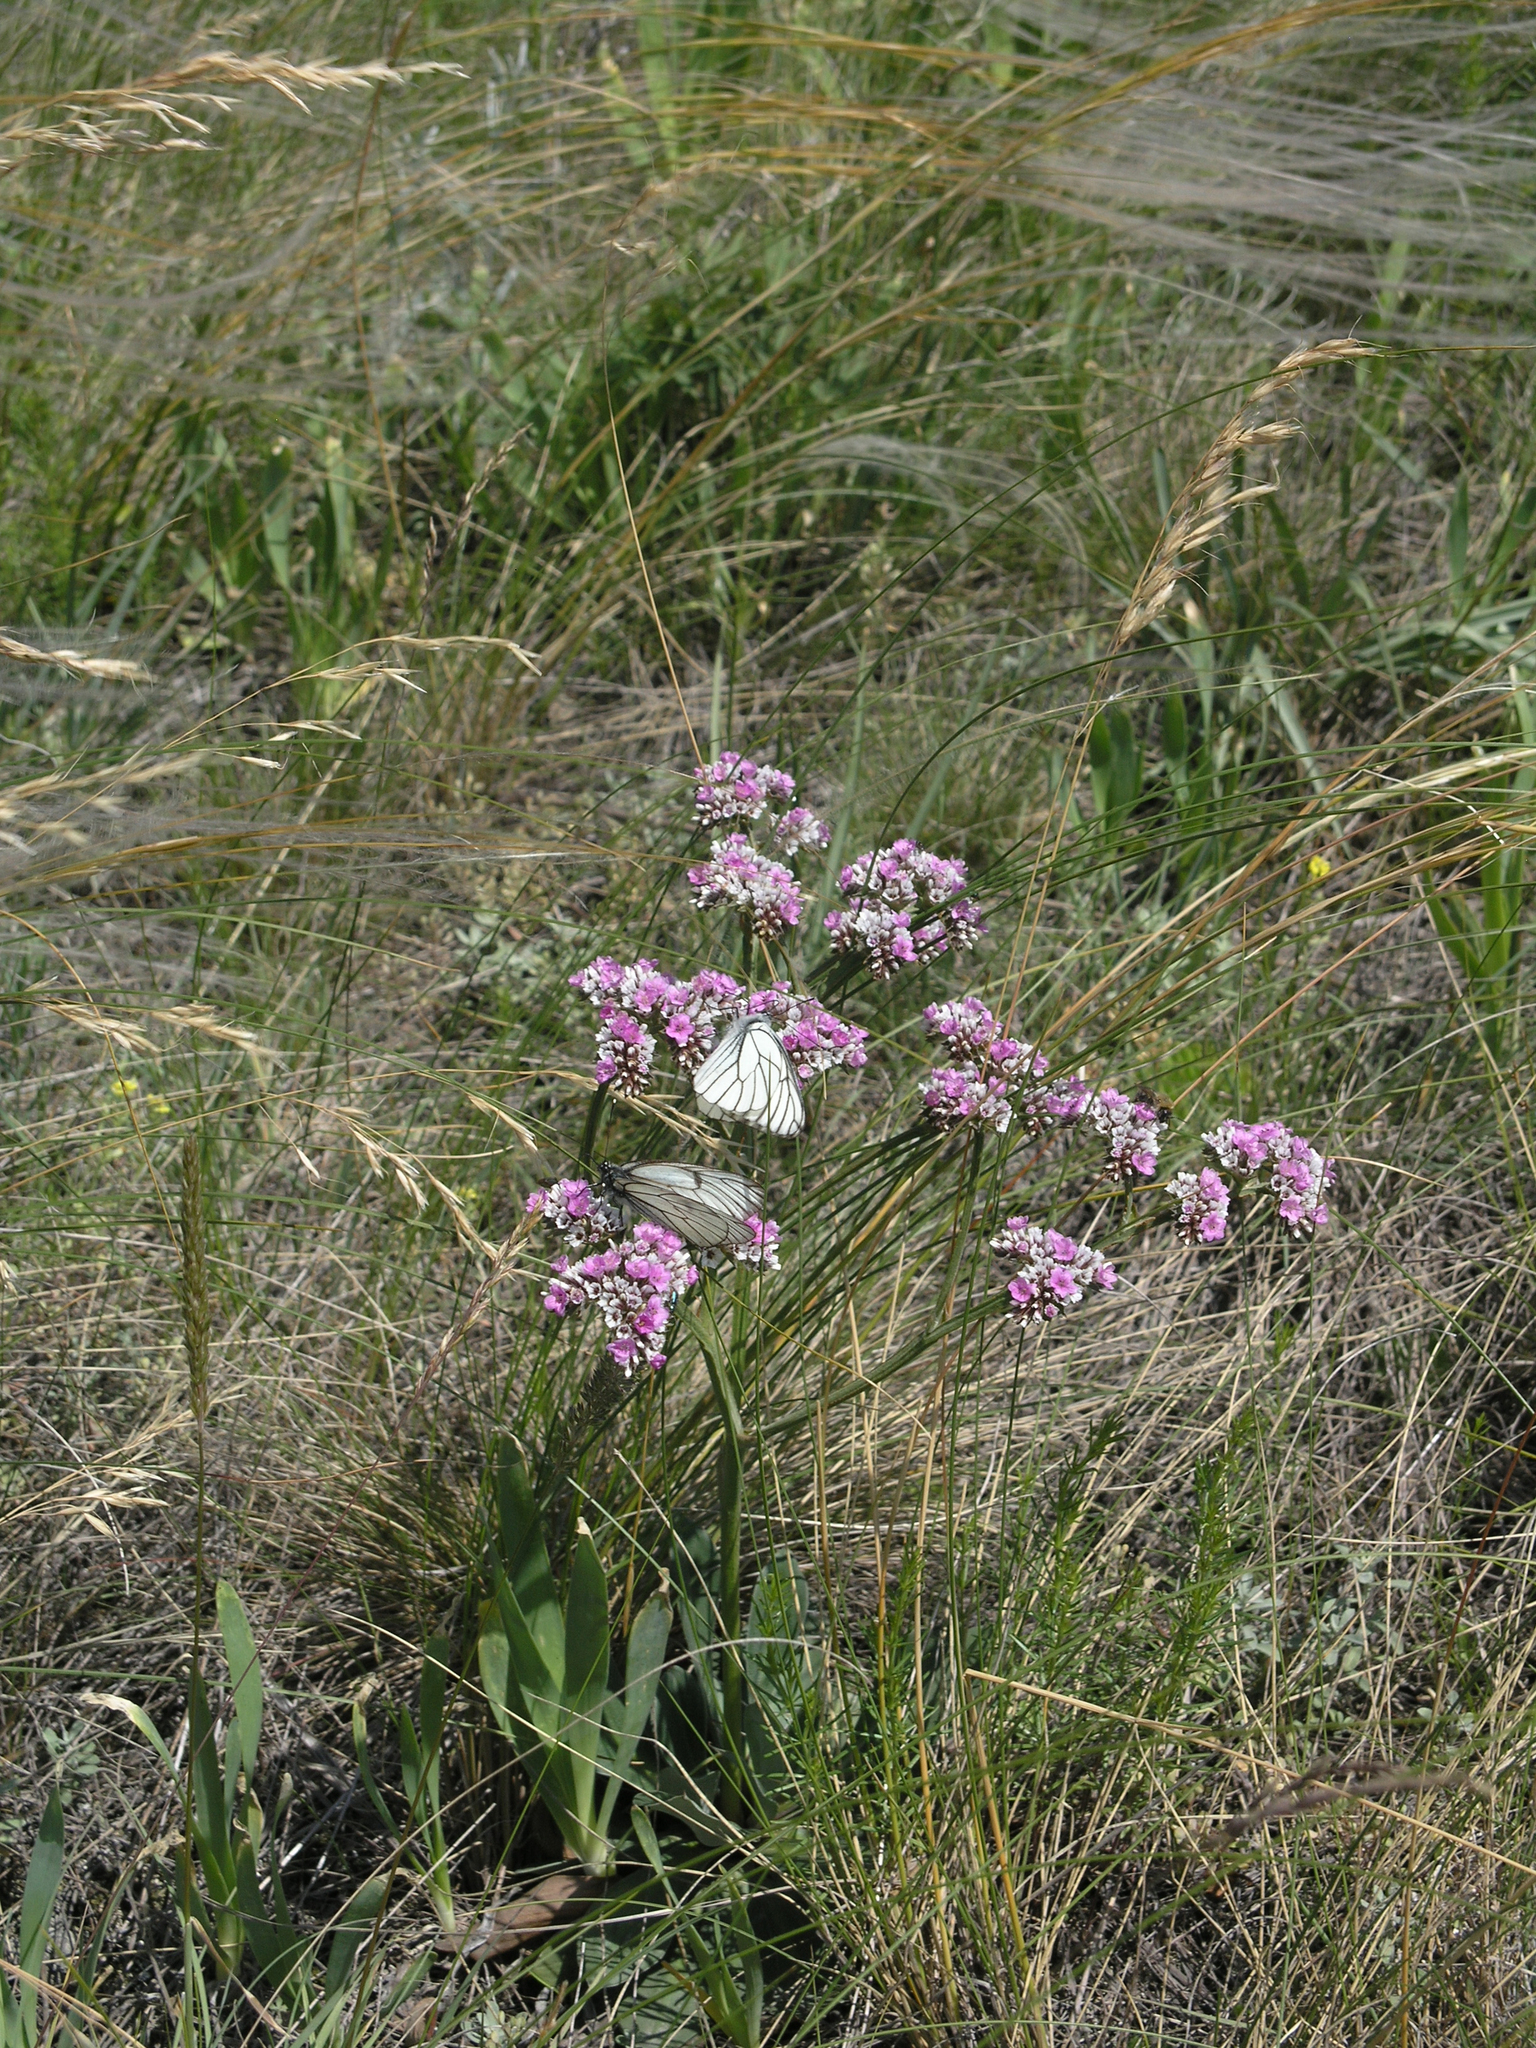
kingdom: Plantae
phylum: Tracheophyta
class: Magnoliopsida
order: Caryophyllales
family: Plumbaginaceae
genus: Goniolimon
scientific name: Goniolimon speciosum
